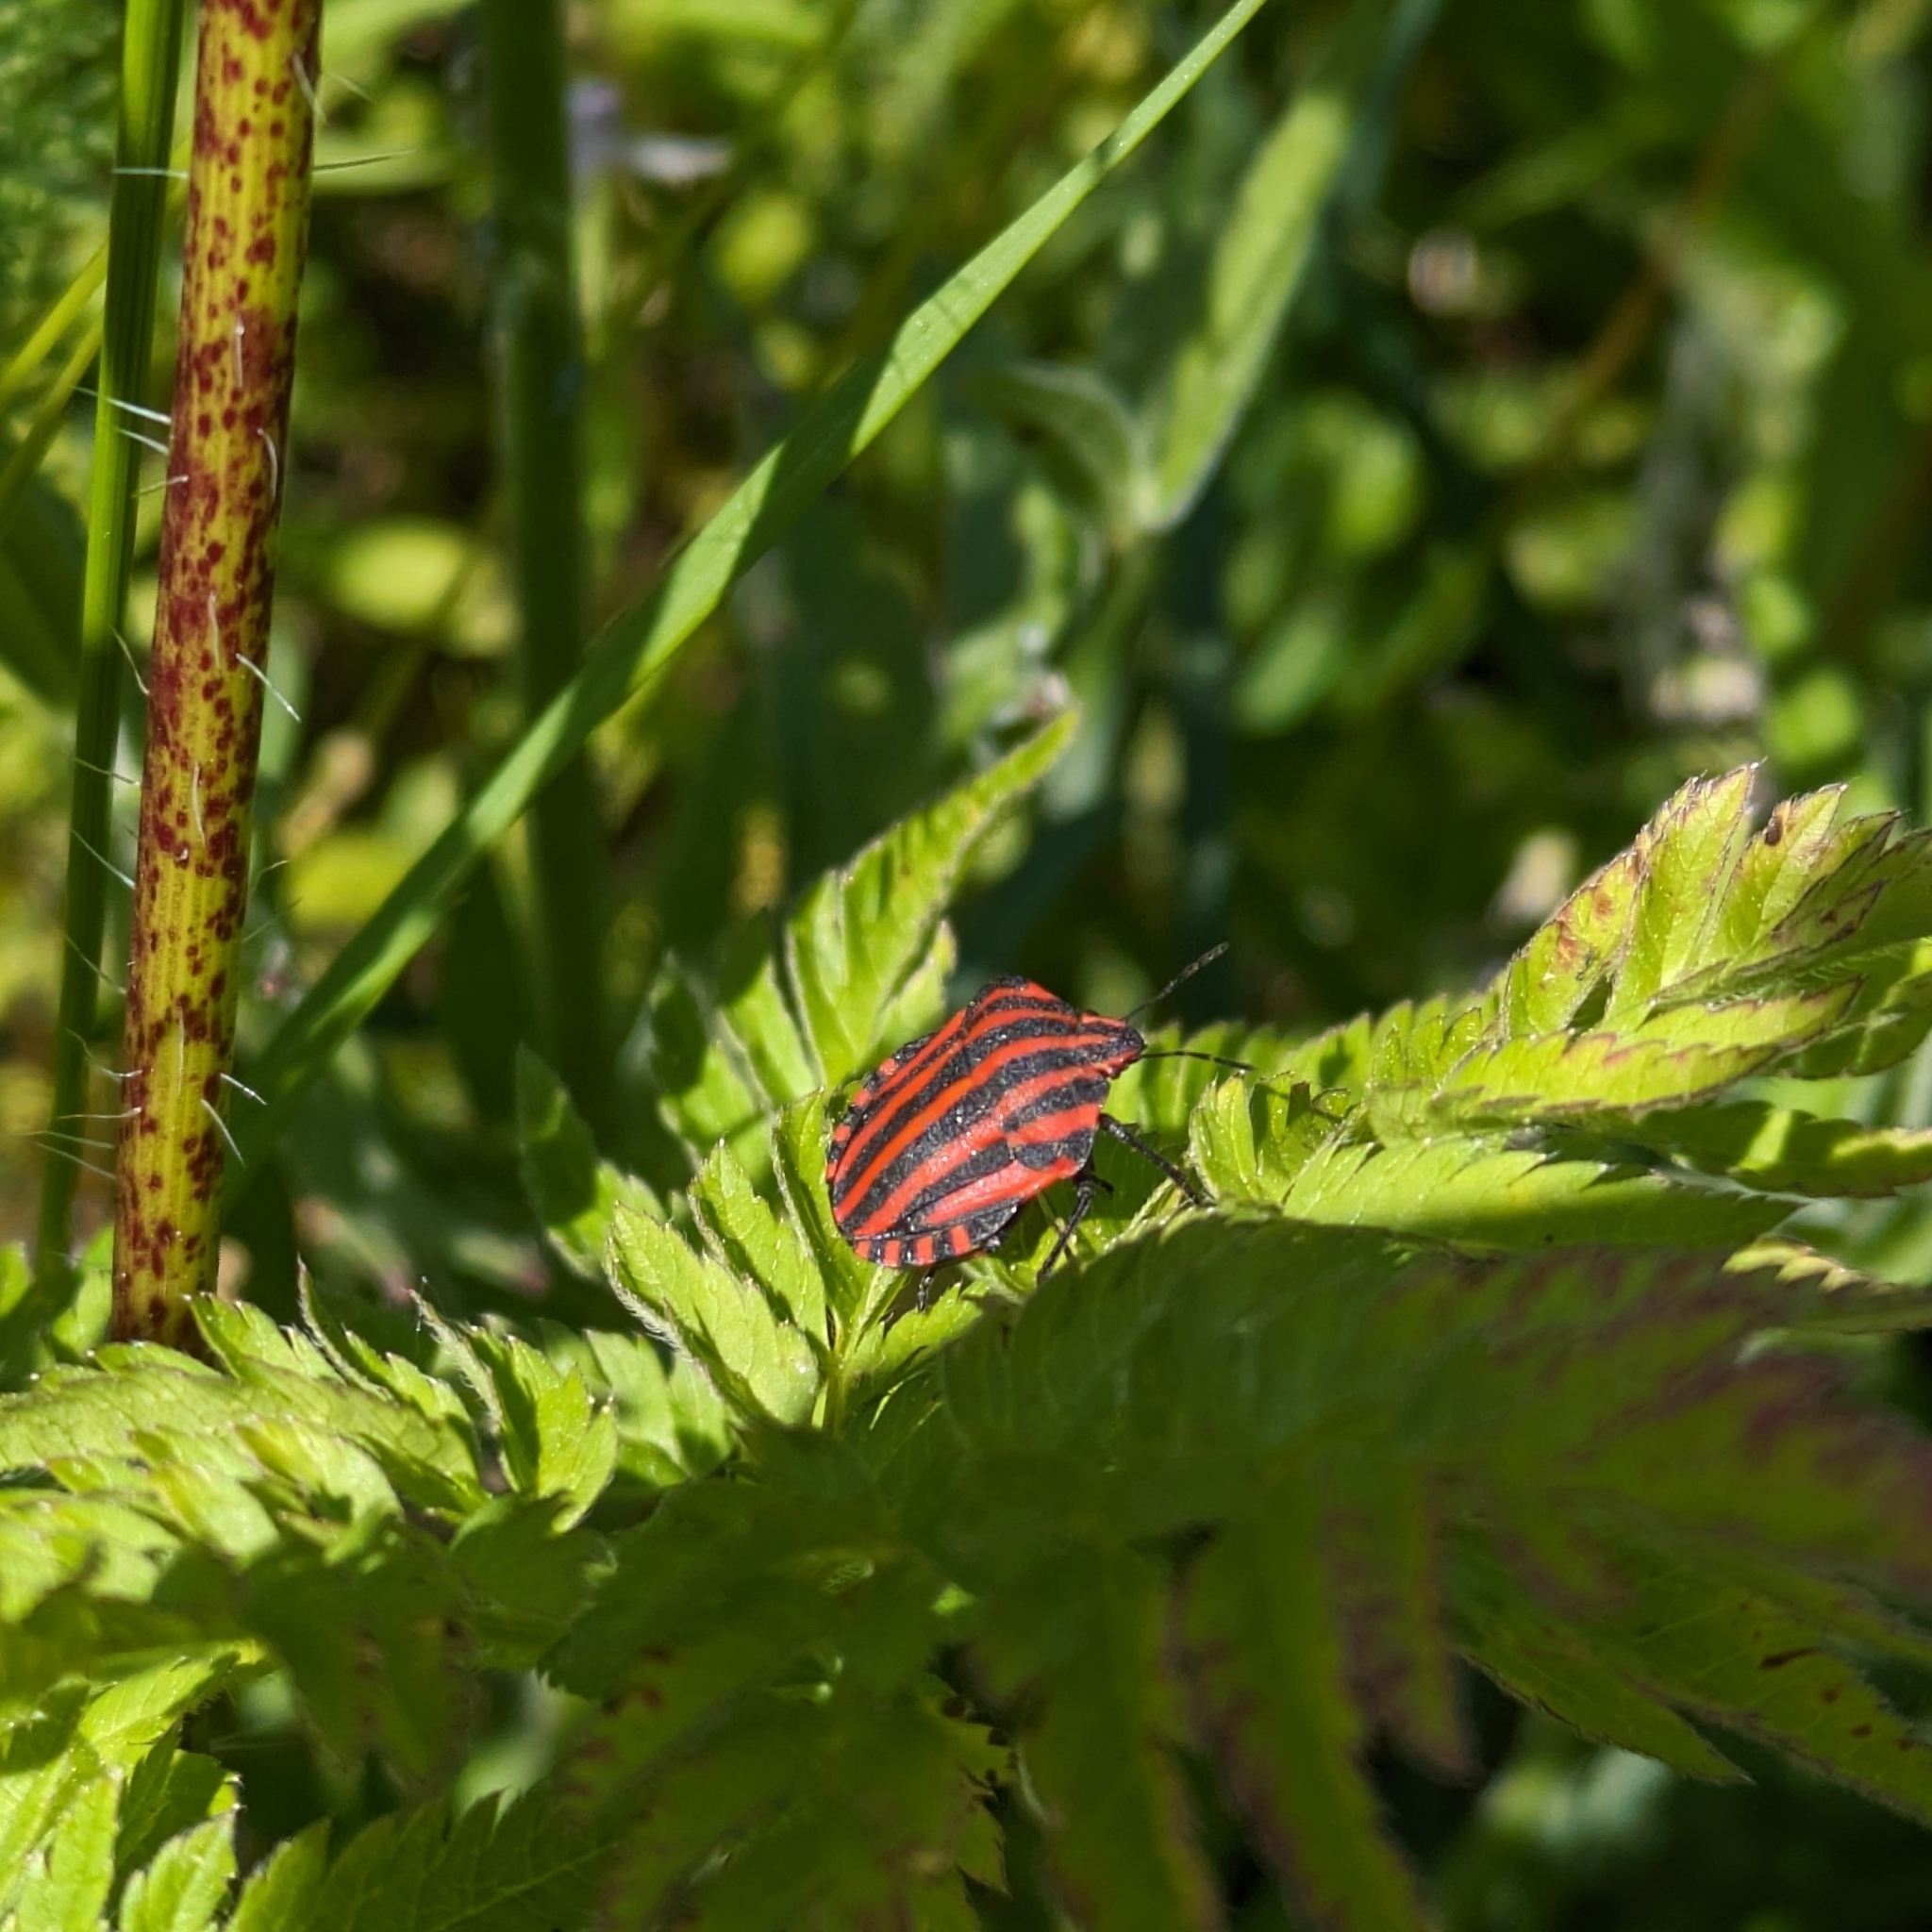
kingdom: Animalia
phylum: Arthropoda
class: Insecta
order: Hemiptera
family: Pentatomidae
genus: Graphosoma
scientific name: Graphosoma italicum
